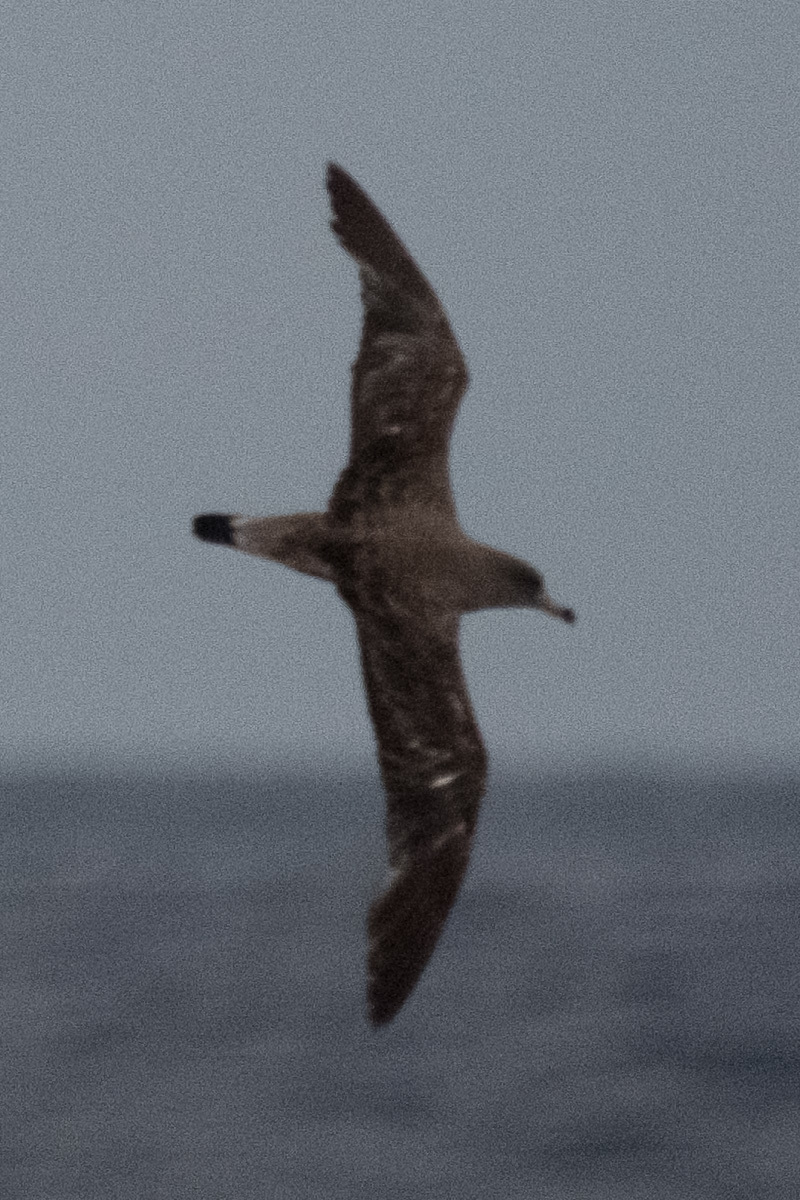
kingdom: Animalia
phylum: Chordata
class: Aves
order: Procellariiformes
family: Procellariidae
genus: Calonectris
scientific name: Calonectris diomedea
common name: Cory's shearwater
